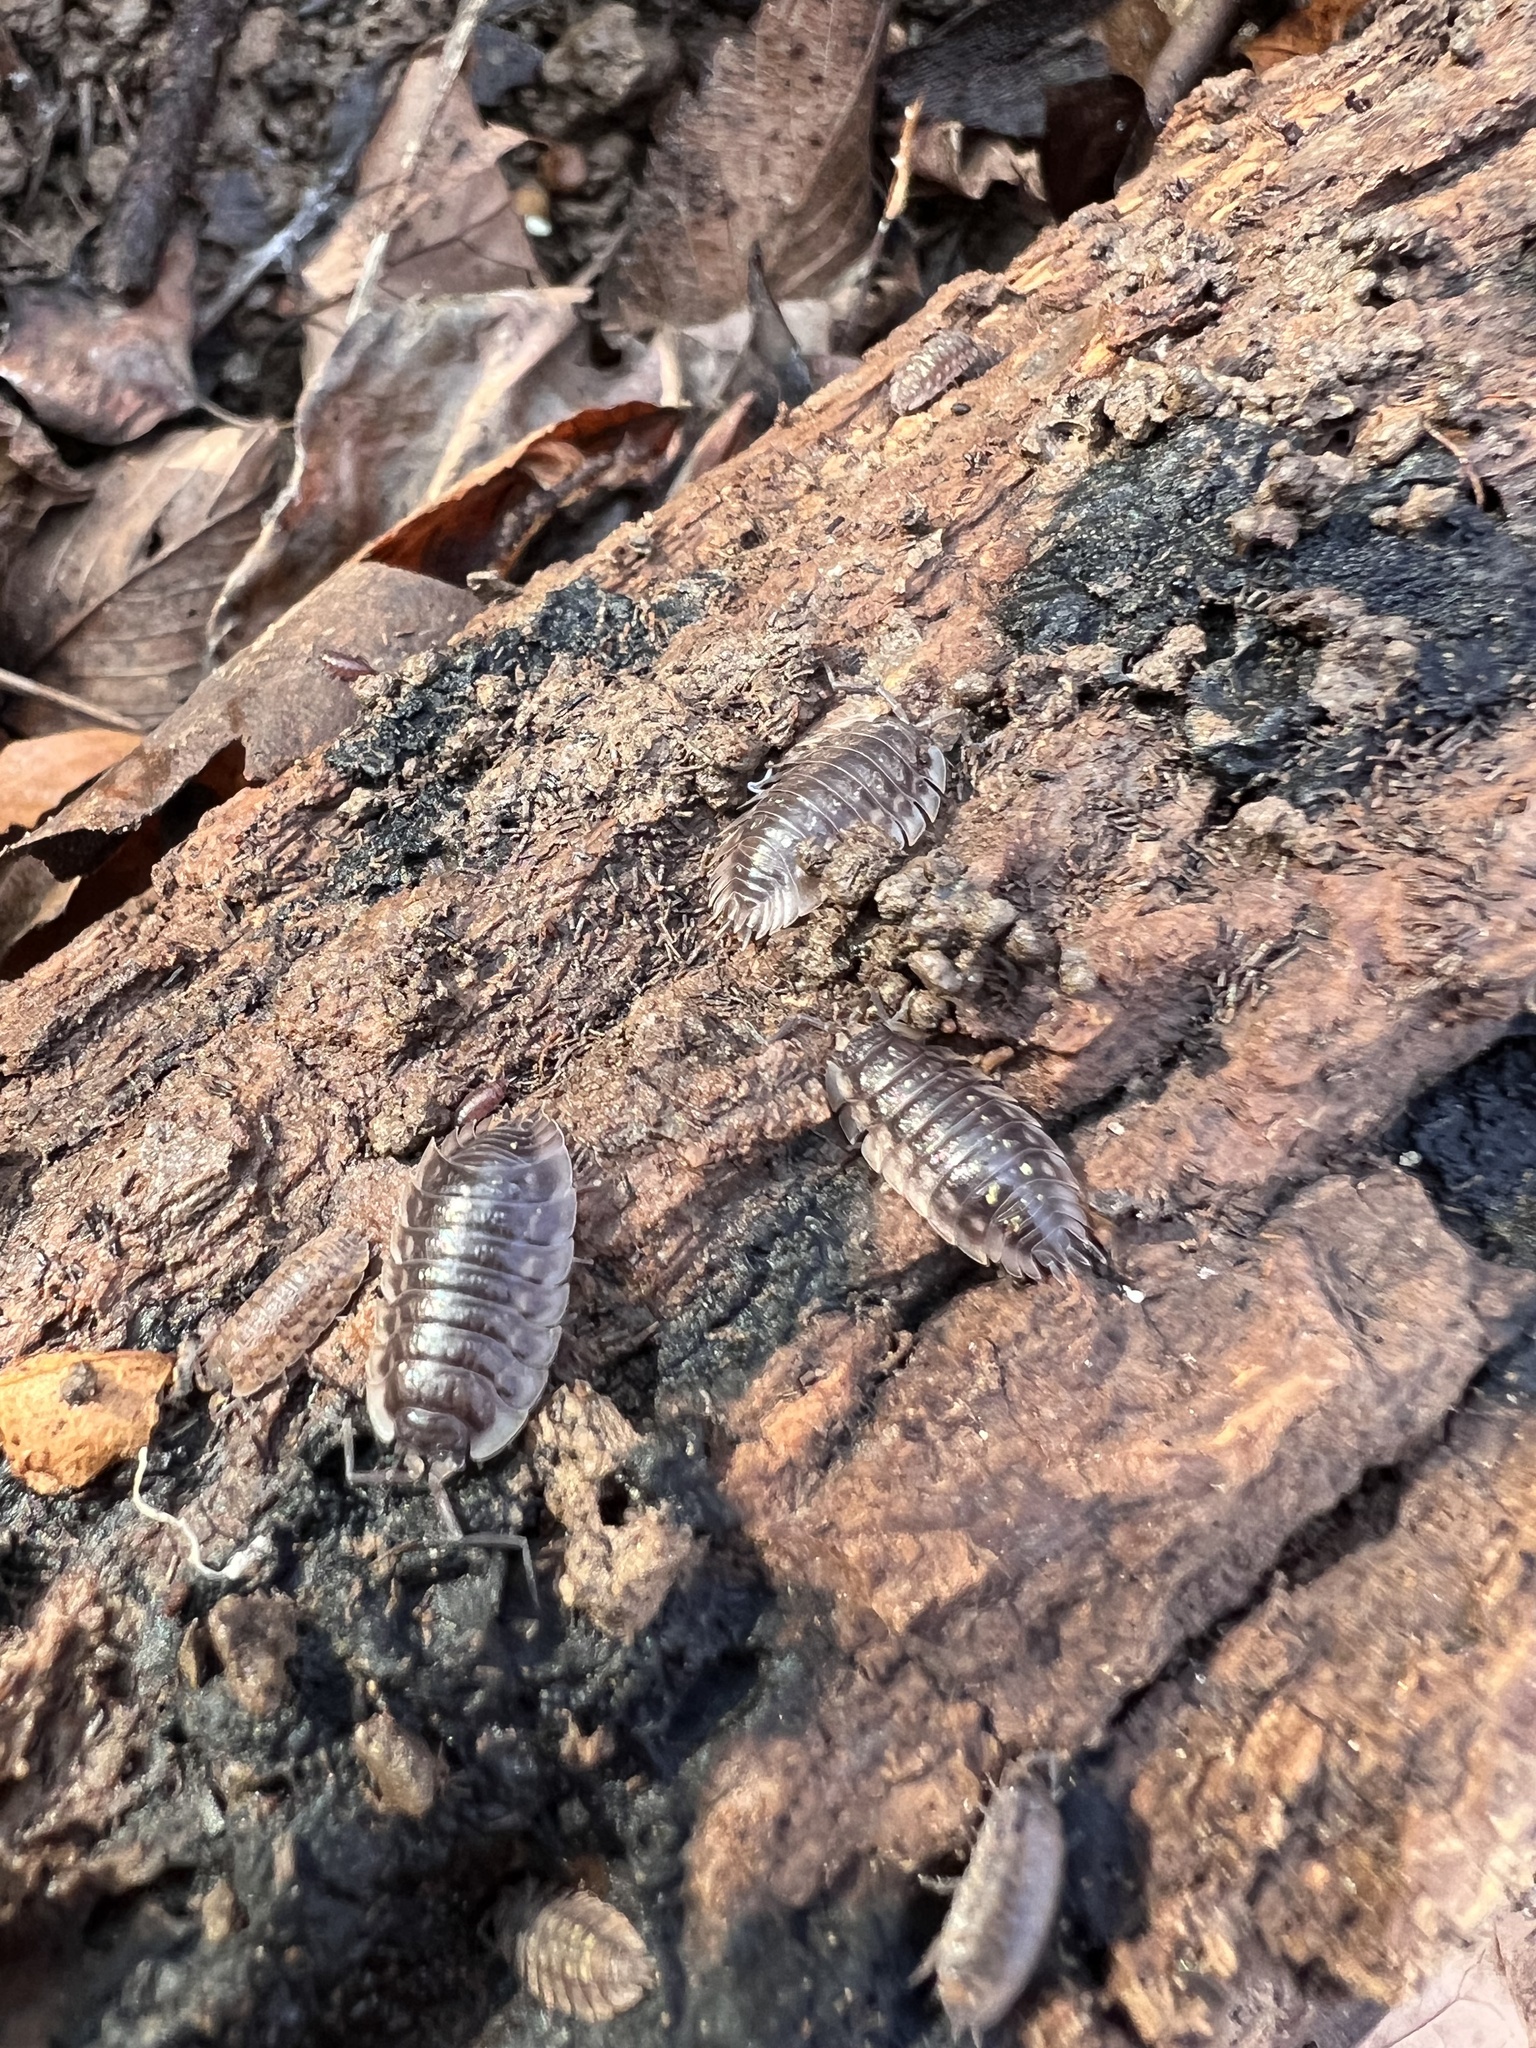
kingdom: Animalia
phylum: Arthropoda
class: Malacostraca
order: Isopoda
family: Oniscidae
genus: Oniscus
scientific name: Oniscus asellus
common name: Common shiny woodlouse
